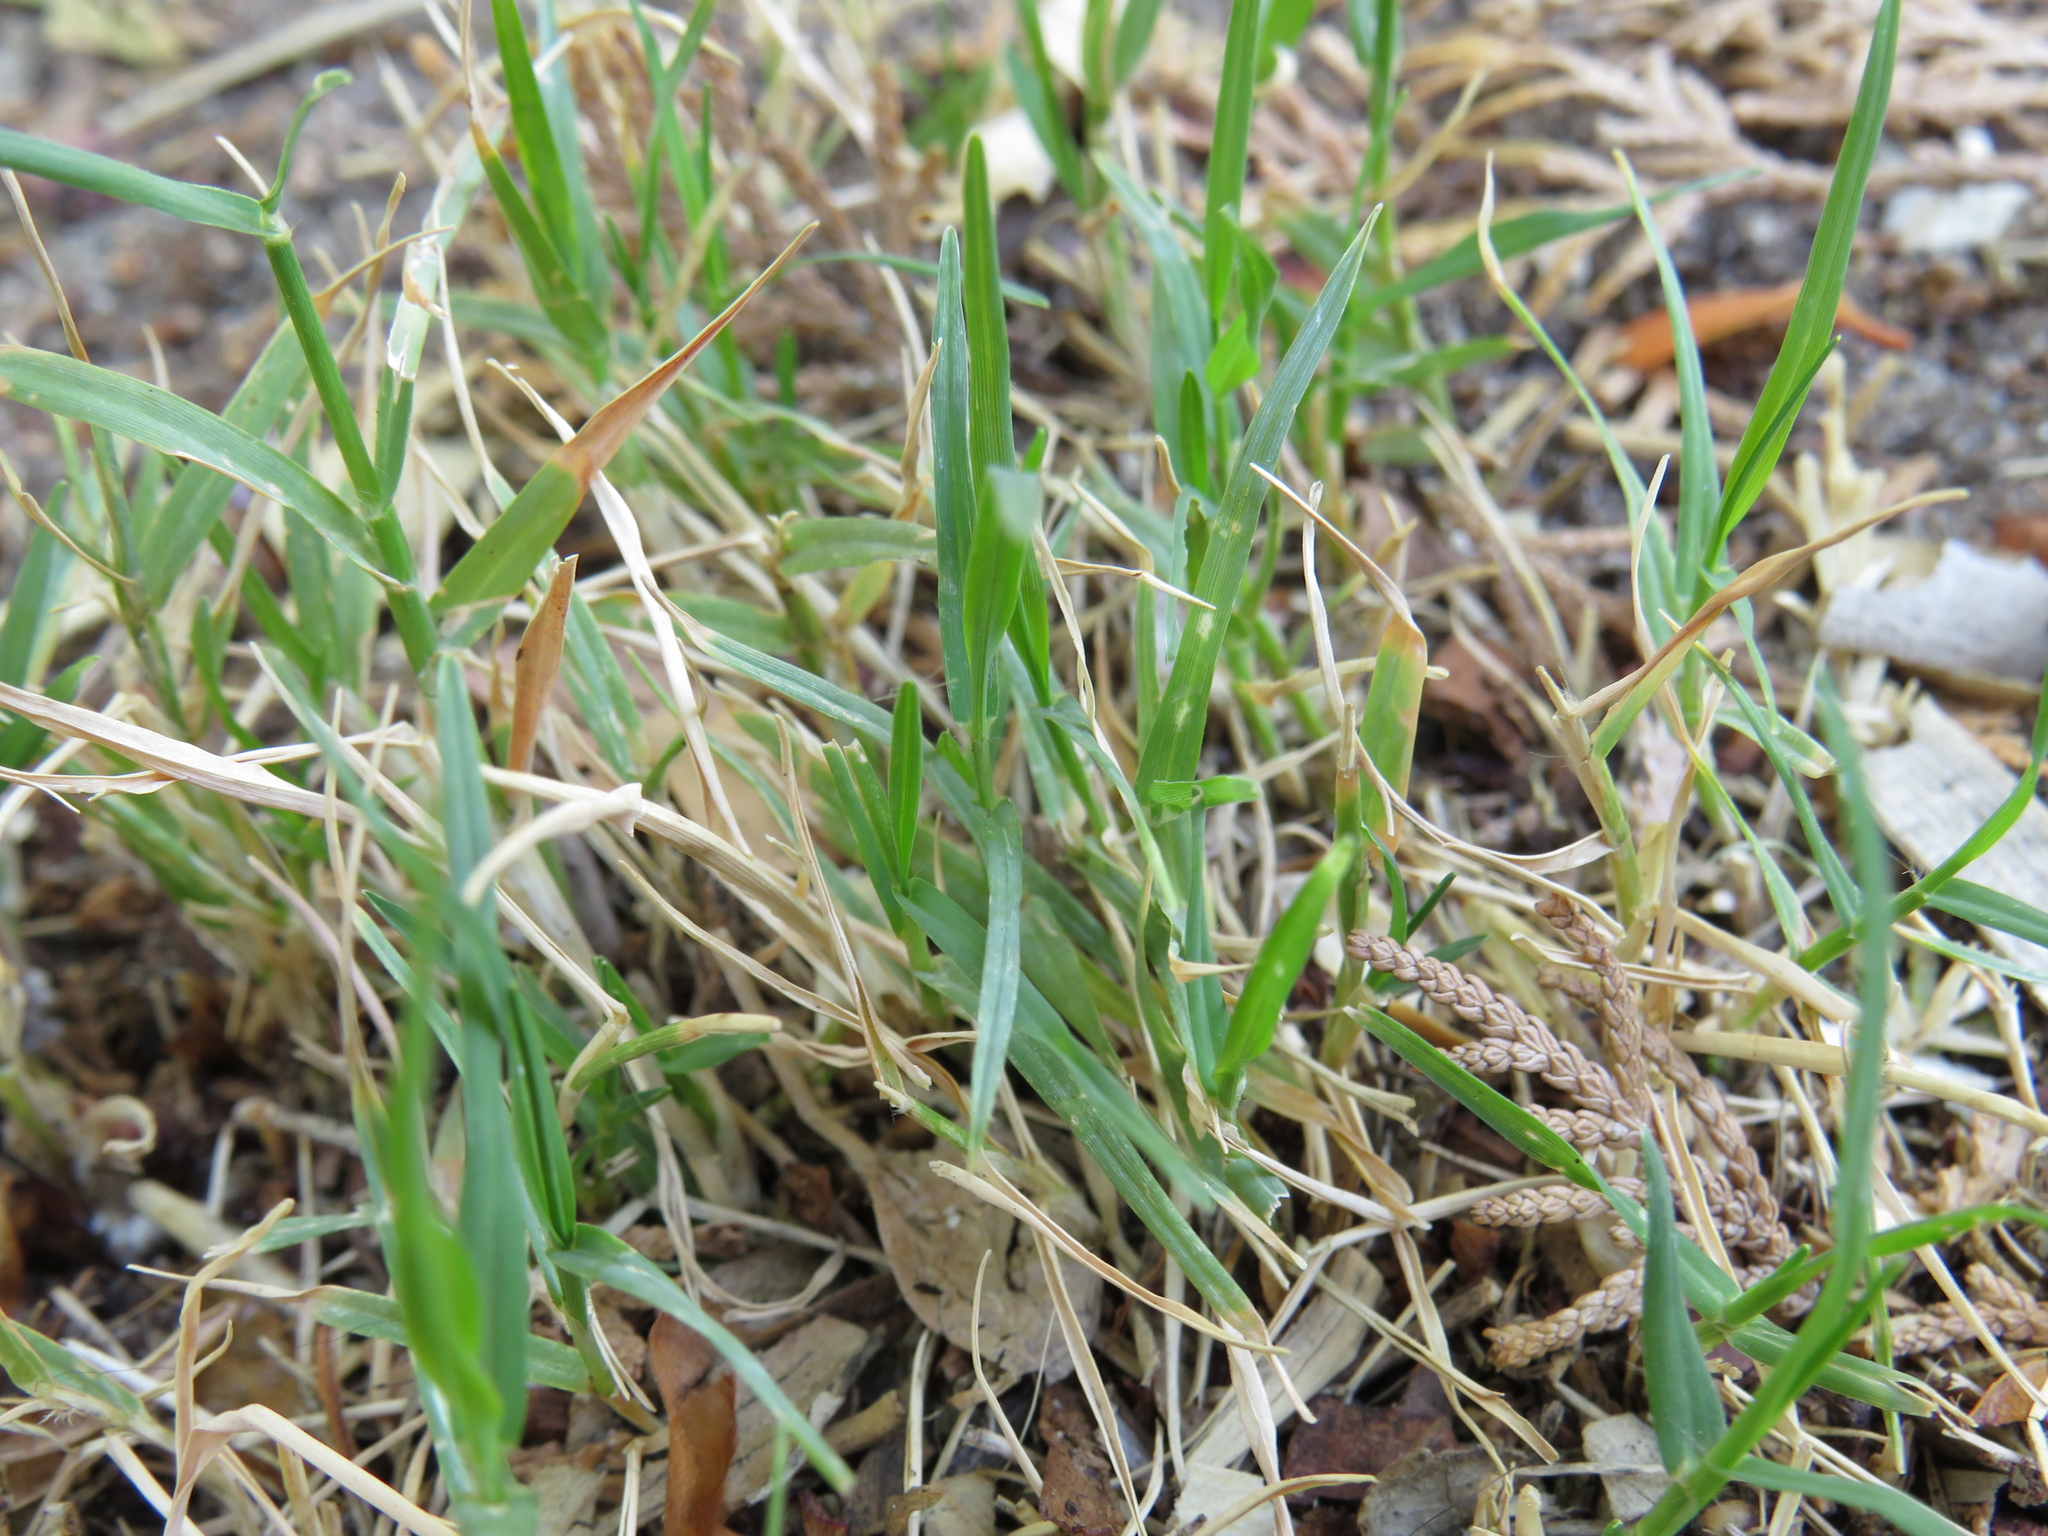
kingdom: Plantae
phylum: Tracheophyta
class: Liliopsida
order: Poales
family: Poaceae
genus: Cynodon
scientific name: Cynodon dactylon
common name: Bermuda grass
